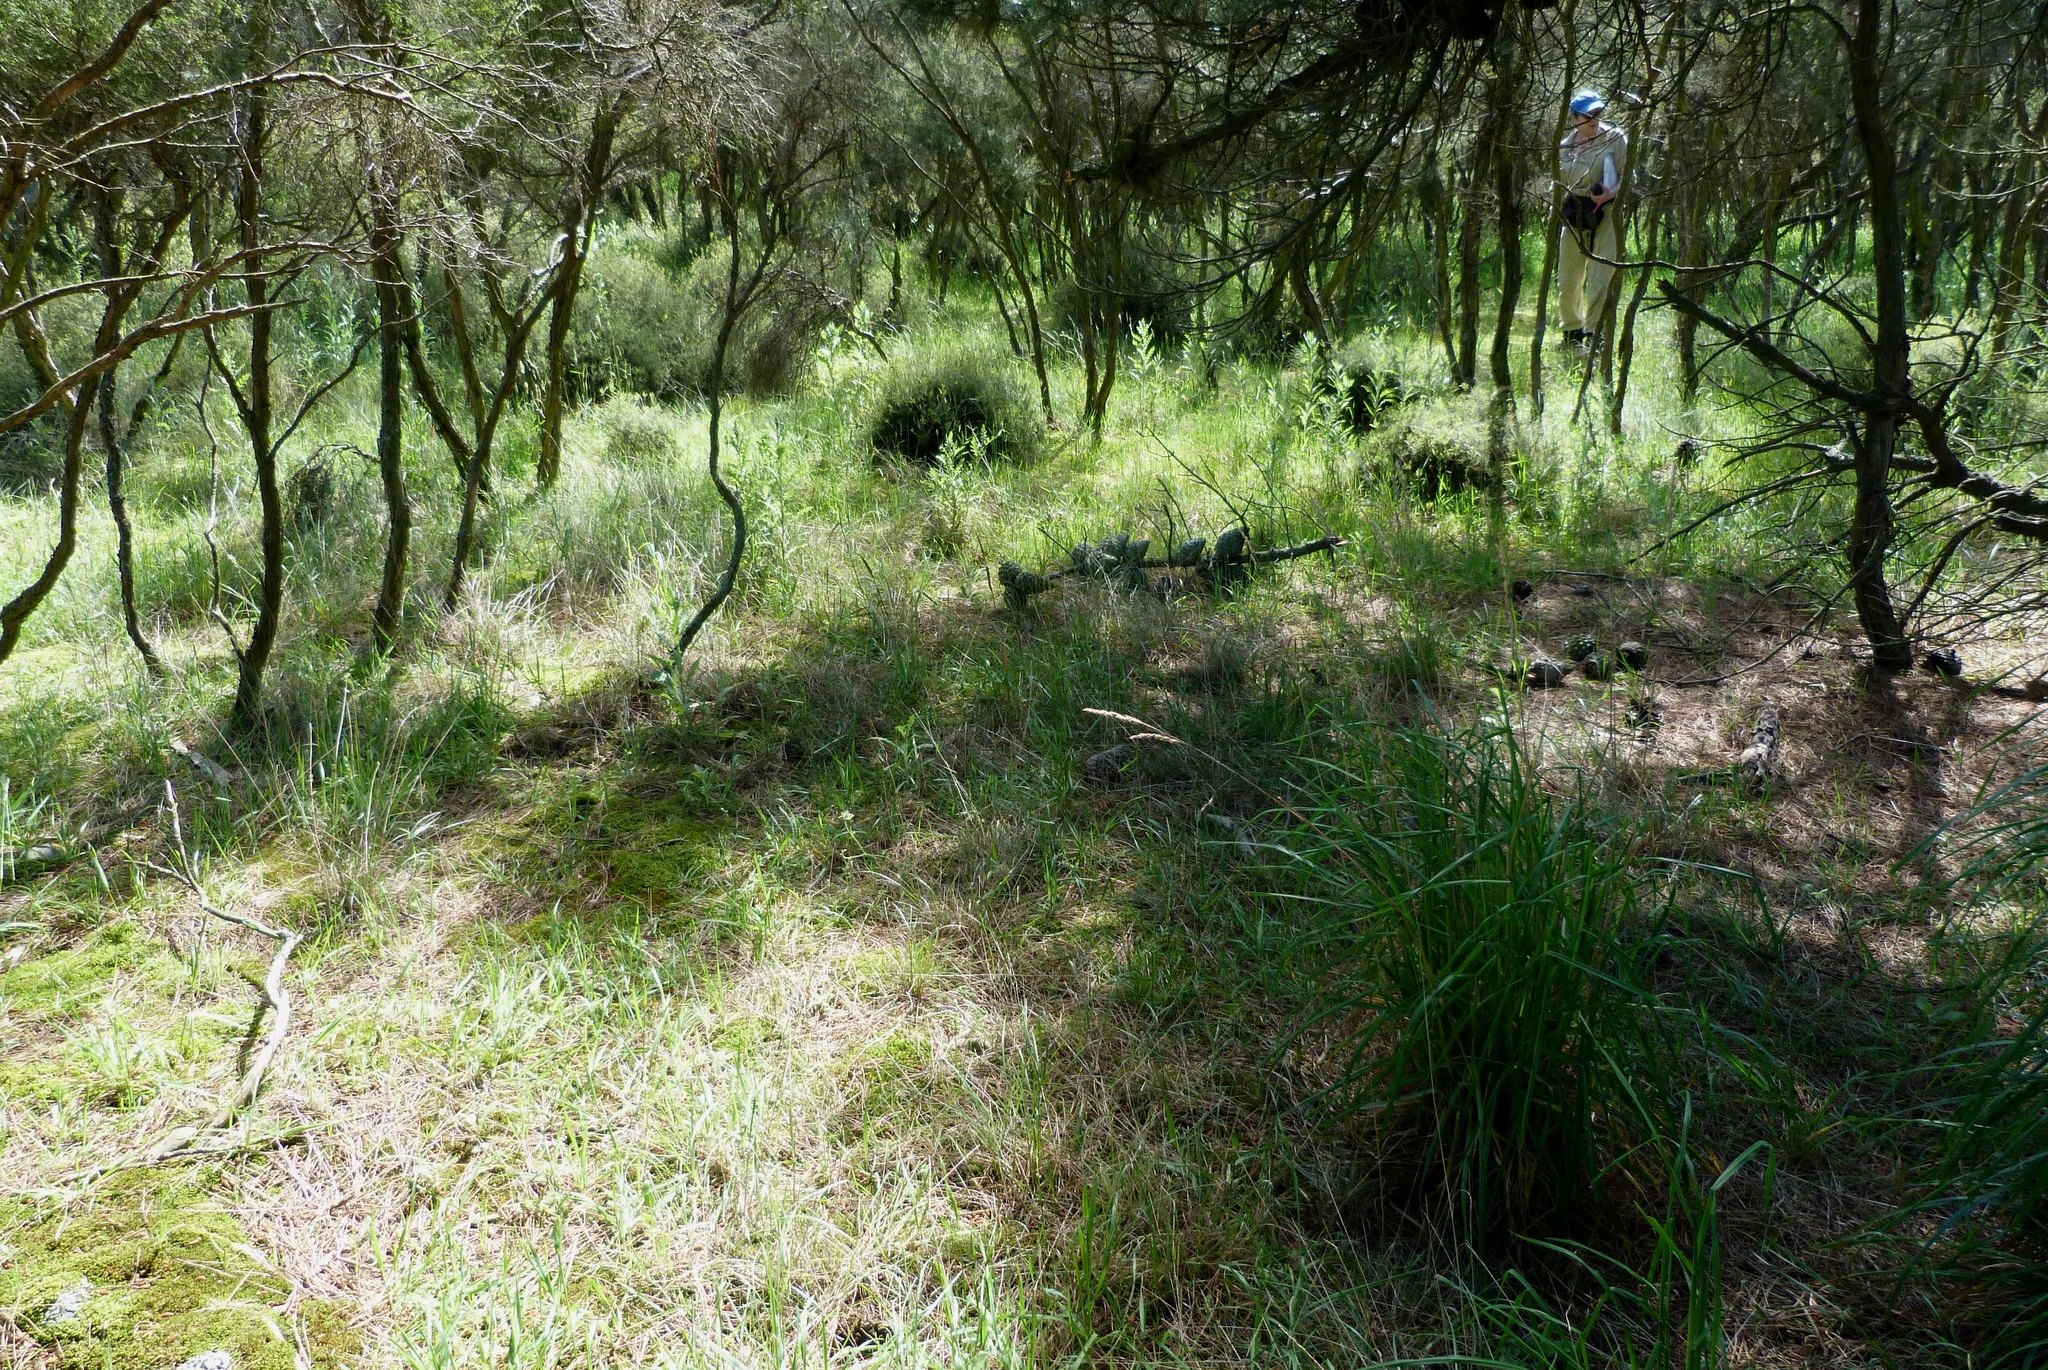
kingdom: Plantae
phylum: Tracheophyta
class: Liliopsida
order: Poales
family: Poaceae
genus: Dactylis
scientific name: Dactylis glomerata
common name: Orchardgrass
